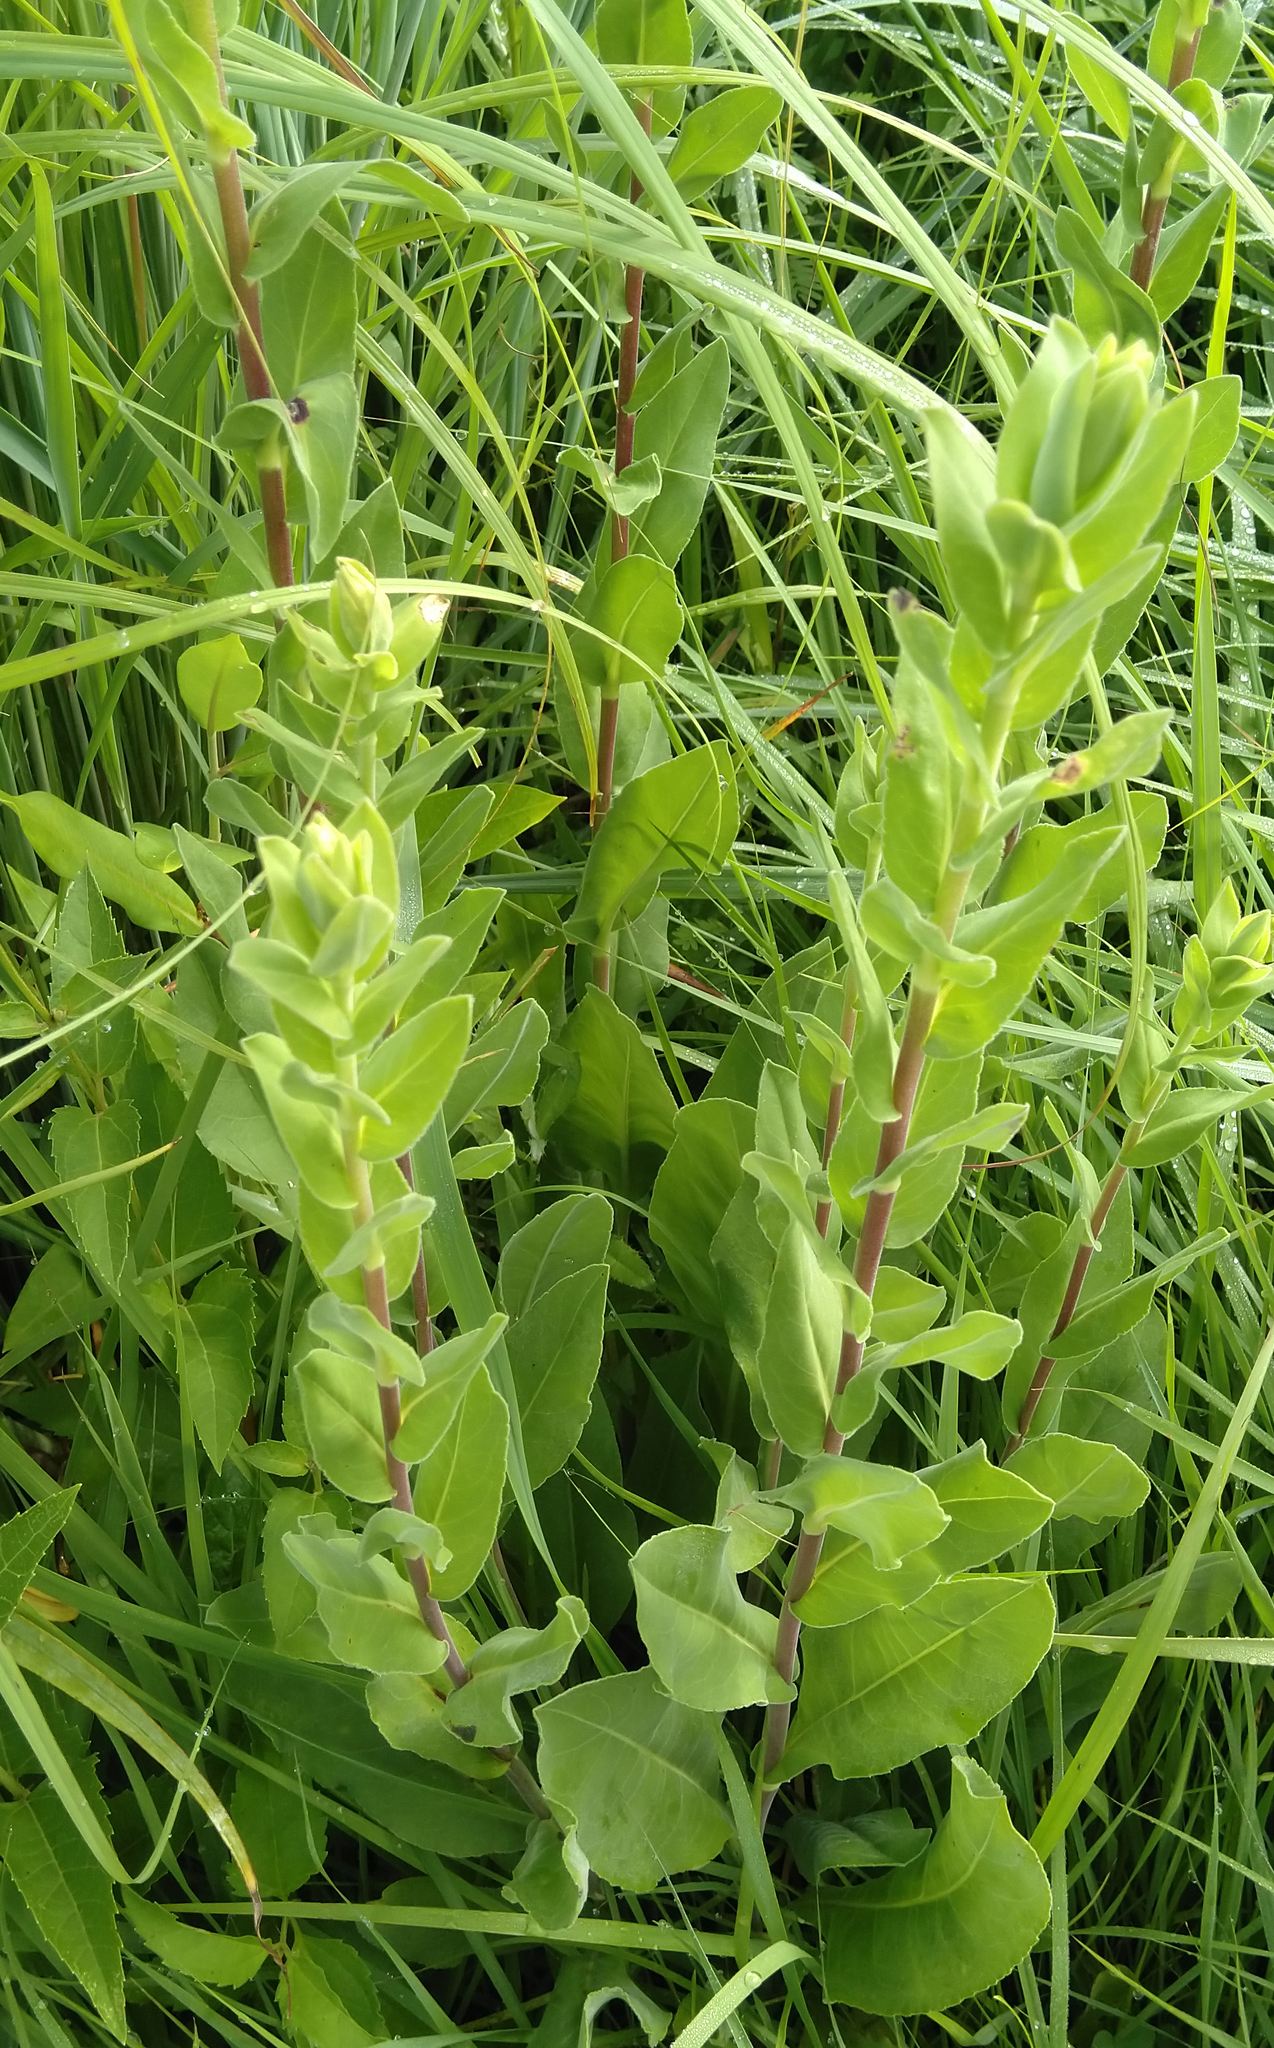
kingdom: Plantae
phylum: Tracheophyta
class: Magnoliopsida
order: Asterales
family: Asteraceae
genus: Solidago
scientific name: Solidago rigida
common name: Rigid goldenrod
